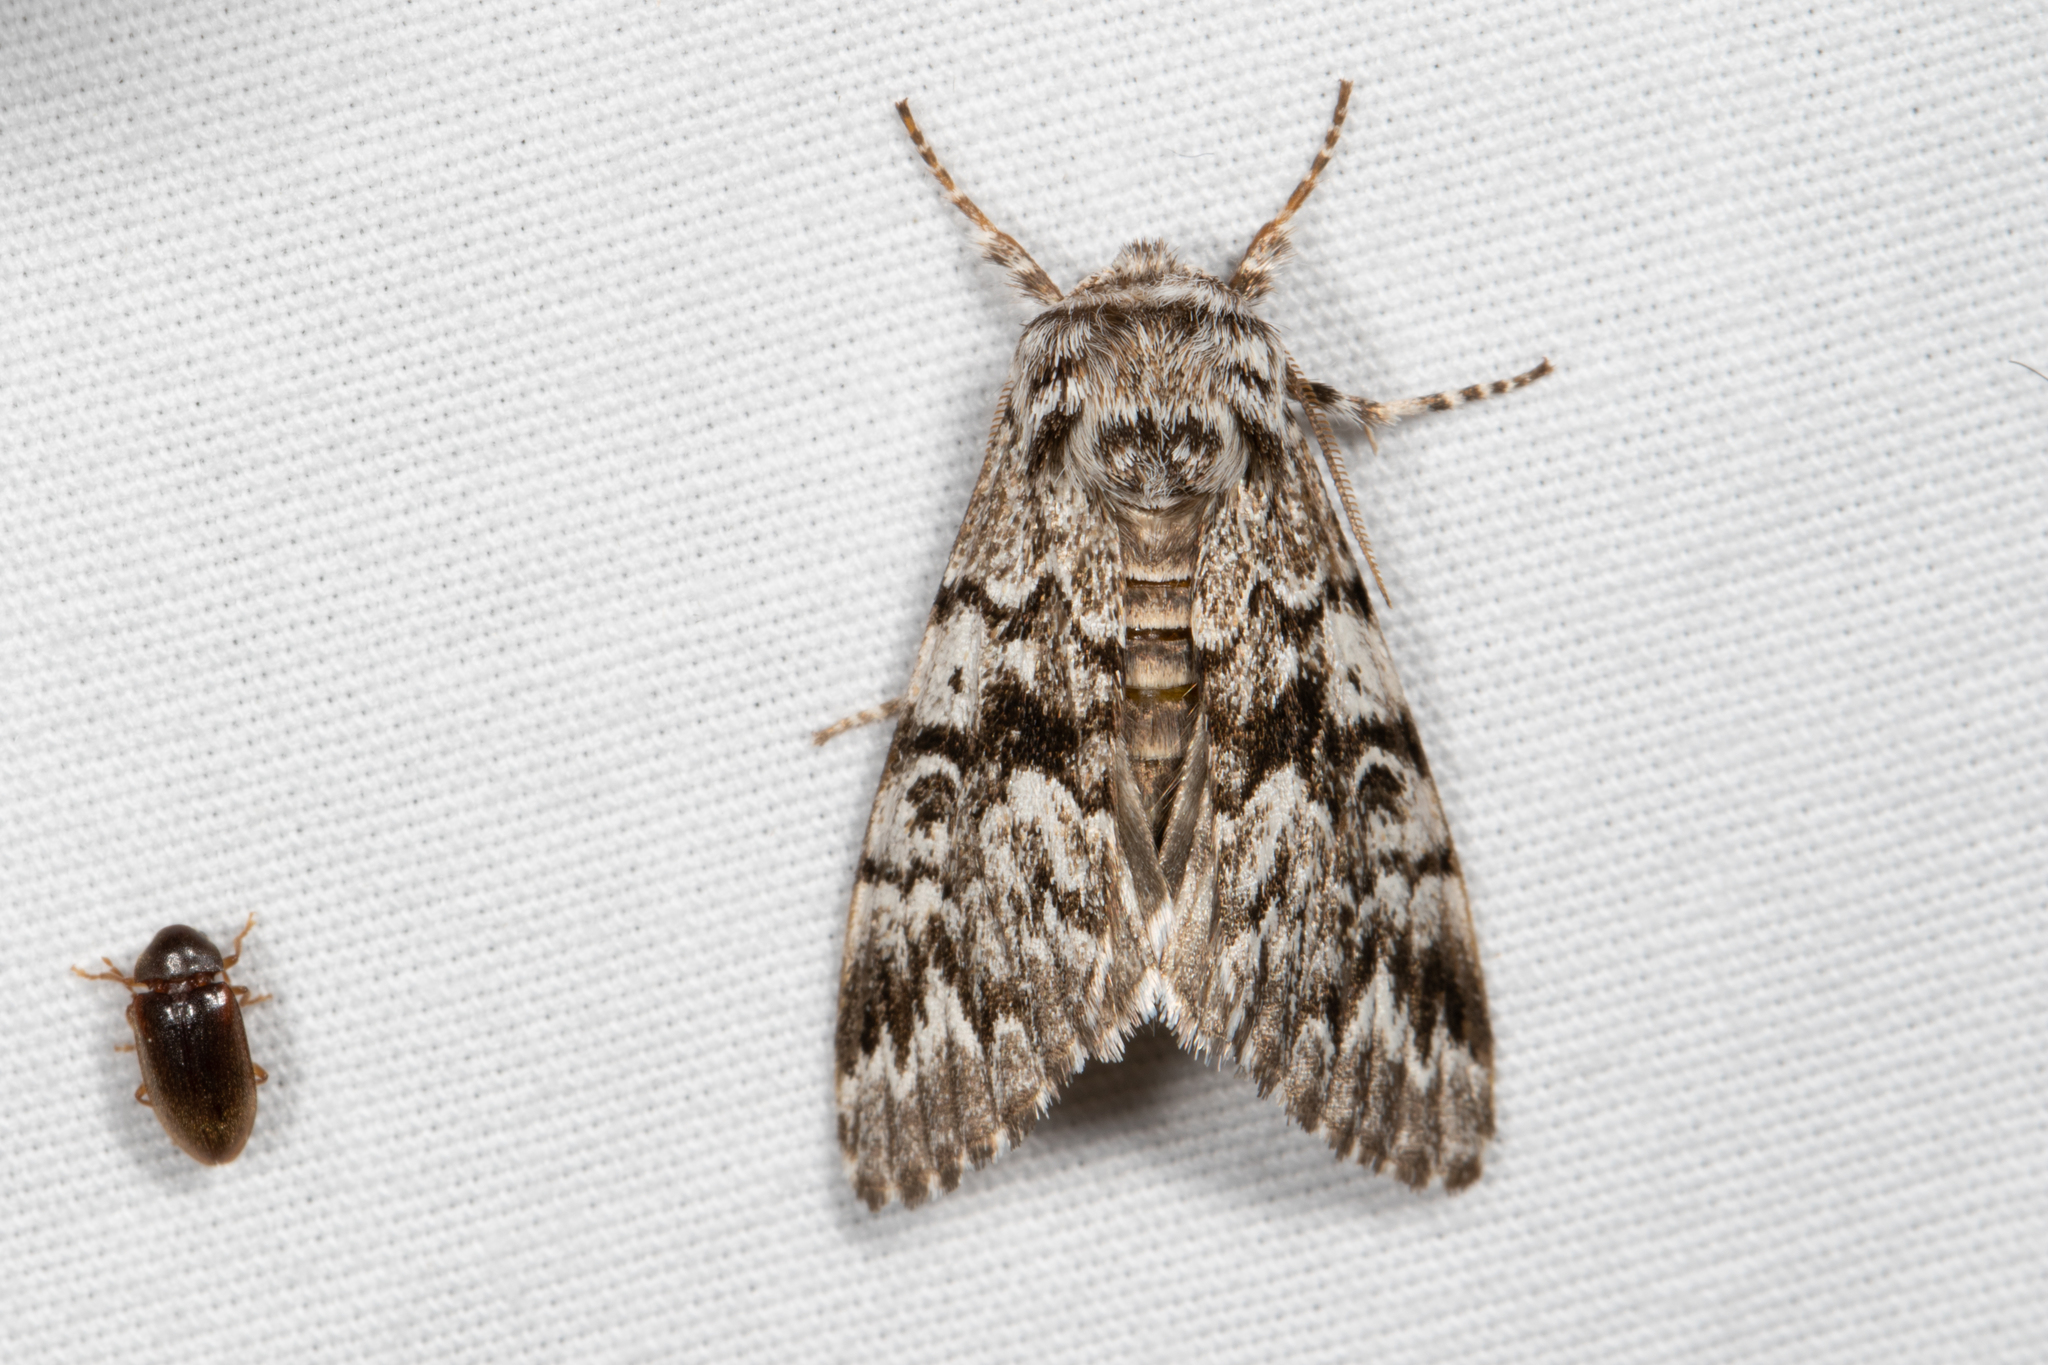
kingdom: Animalia
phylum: Arthropoda
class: Insecta
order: Lepidoptera
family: Noctuidae
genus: Panthea
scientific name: Panthea acronyctoides
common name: Black zigzag moth
